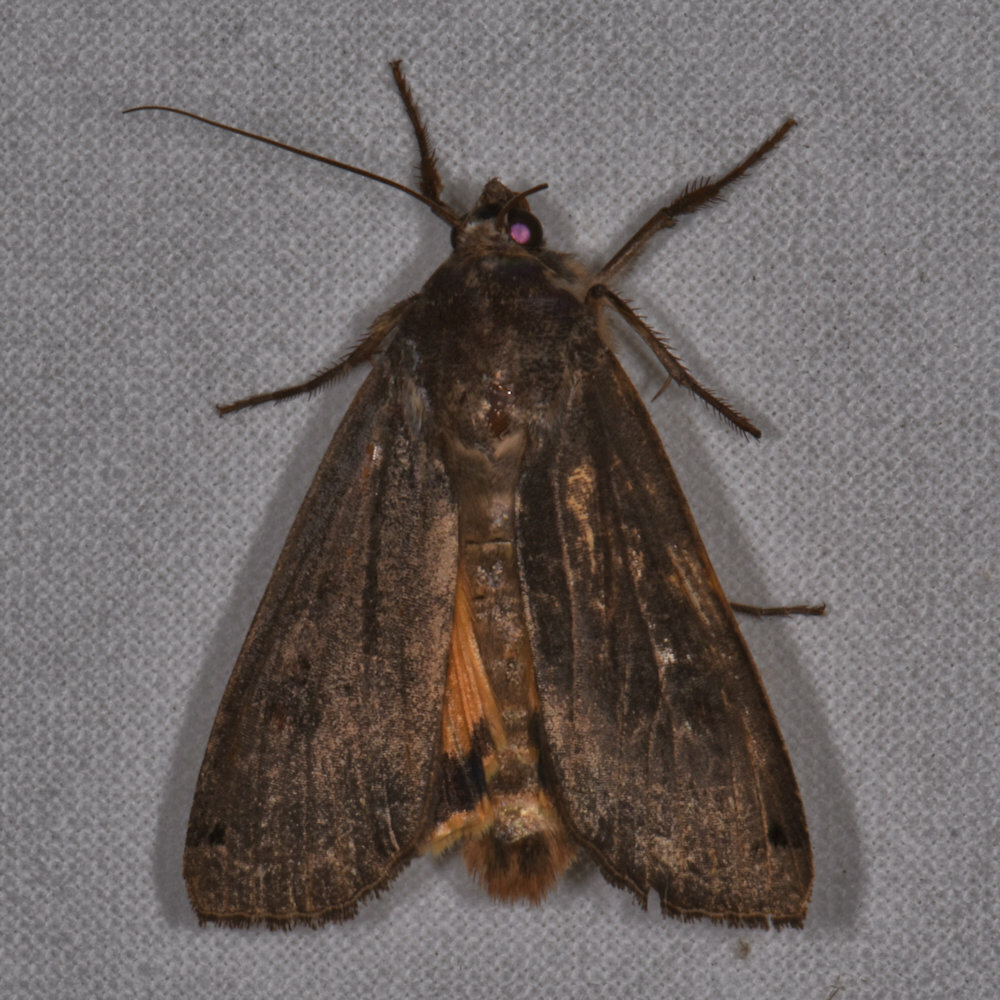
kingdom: Animalia
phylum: Arthropoda
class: Insecta
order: Lepidoptera
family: Noctuidae
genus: Noctua
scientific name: Noctua pronuba
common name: Large yellow underwing
